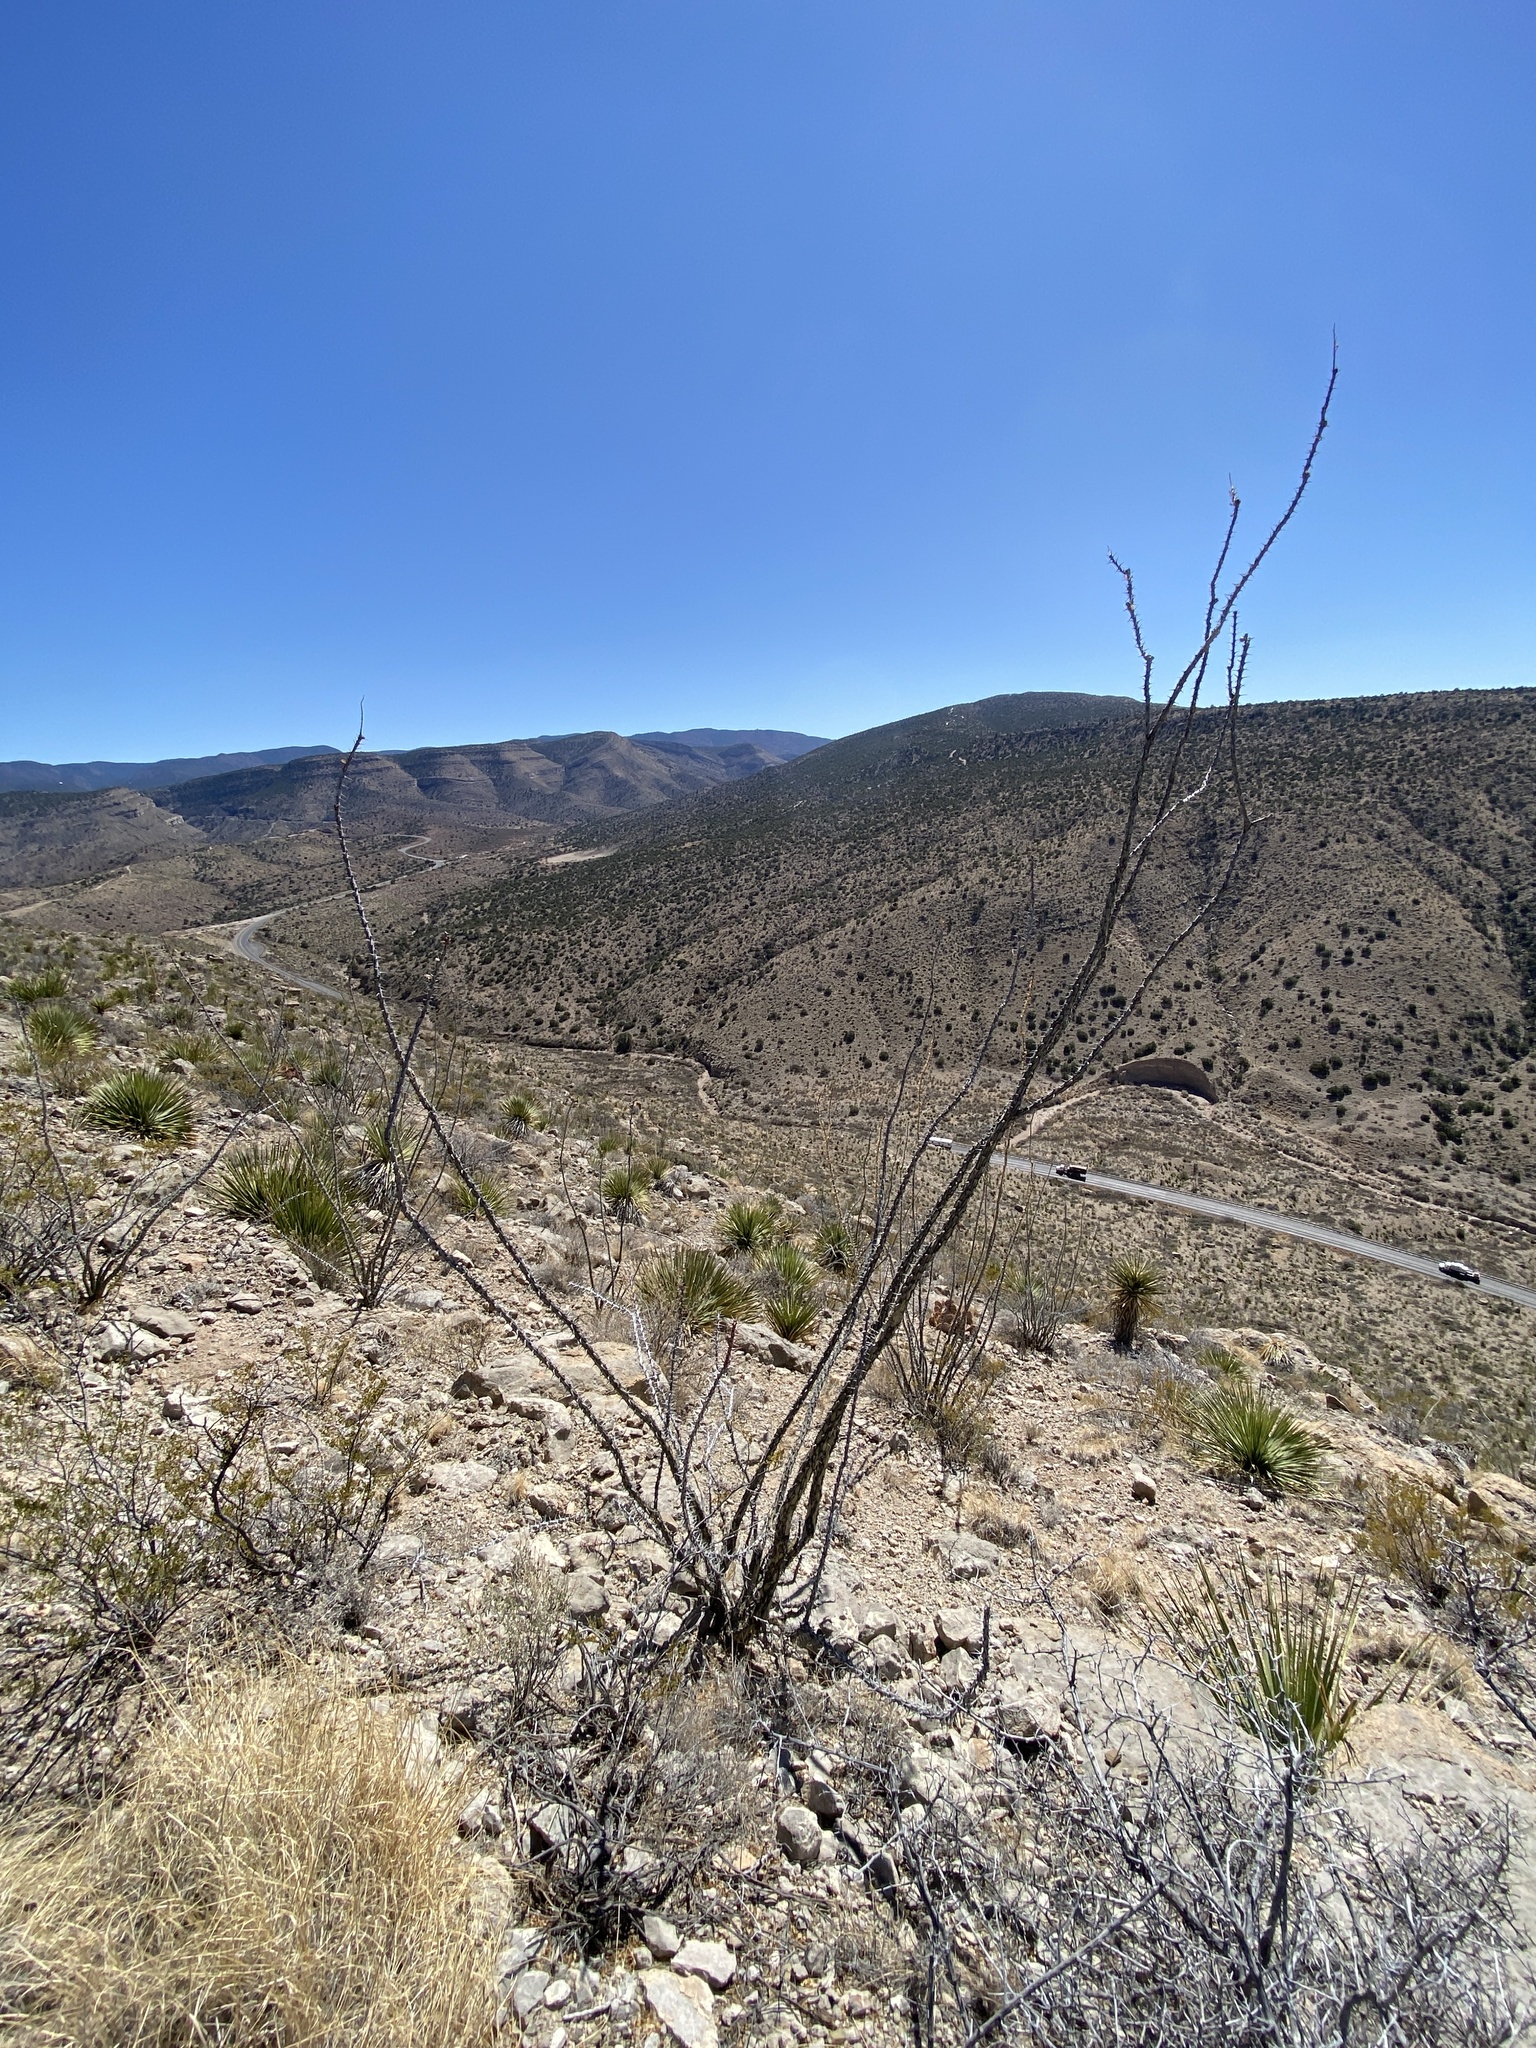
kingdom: Plantae
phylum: Tracheophyta
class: Magnoliopsida
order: Ericales
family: Fouquieriaceae
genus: Fouquieria
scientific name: Fouquieria splendens
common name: Vine-cactus
